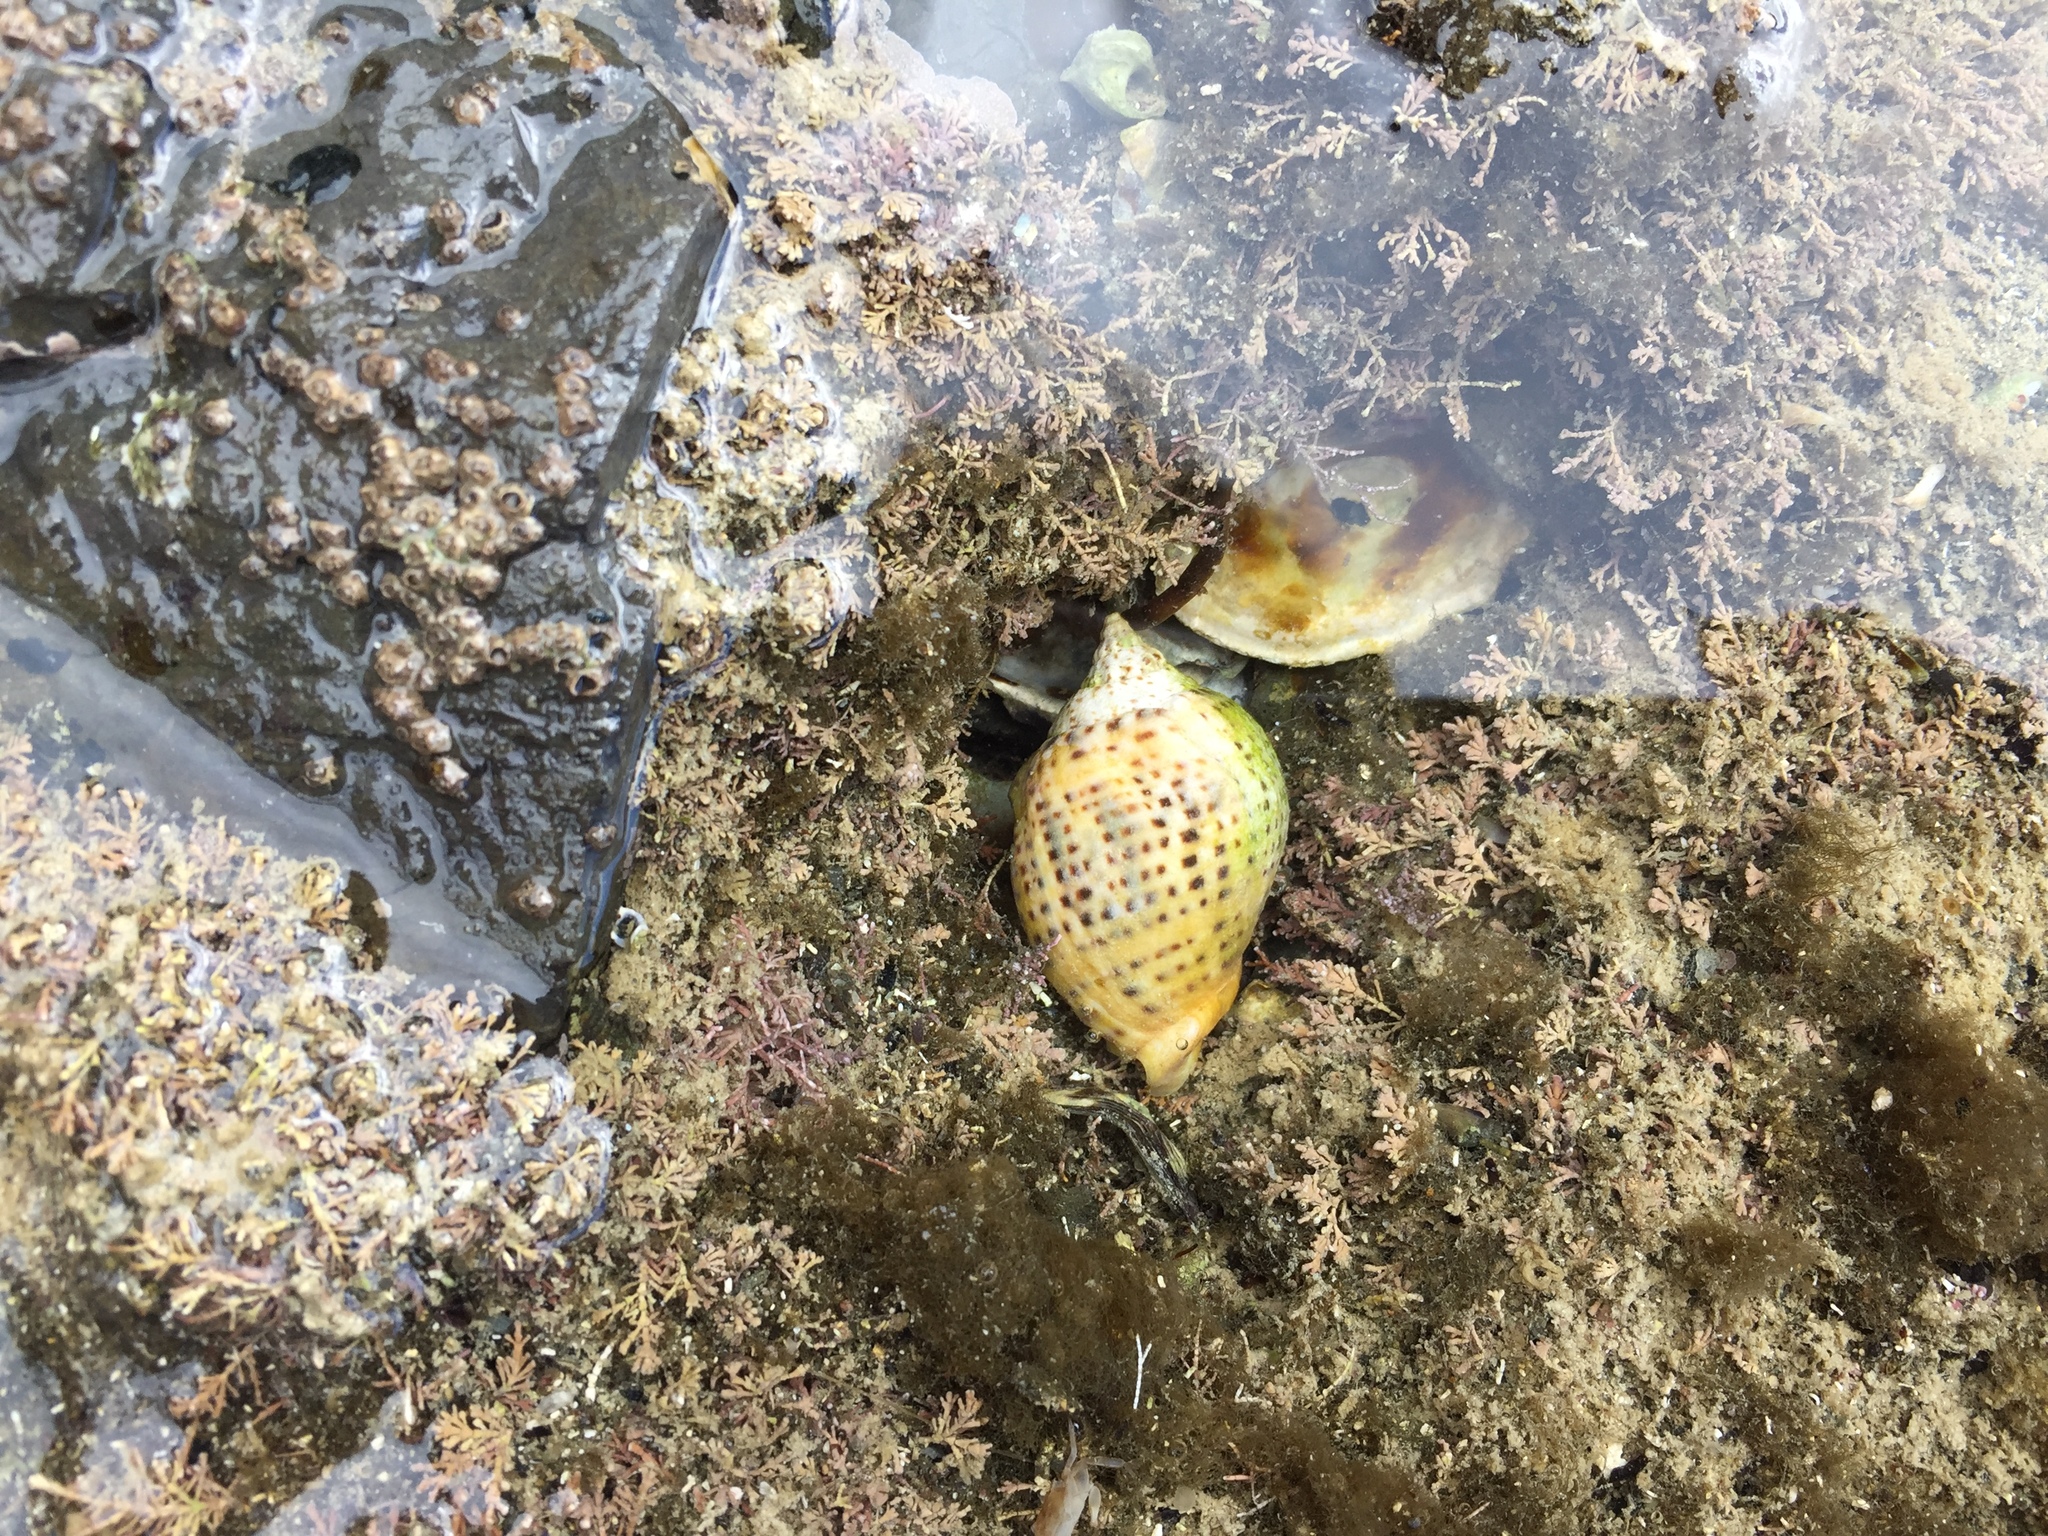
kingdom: Animalia
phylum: Mollusca
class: Gastropoda
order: Neogastropoda
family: Cominellidae
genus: Cominella
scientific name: Cominella adspersa
